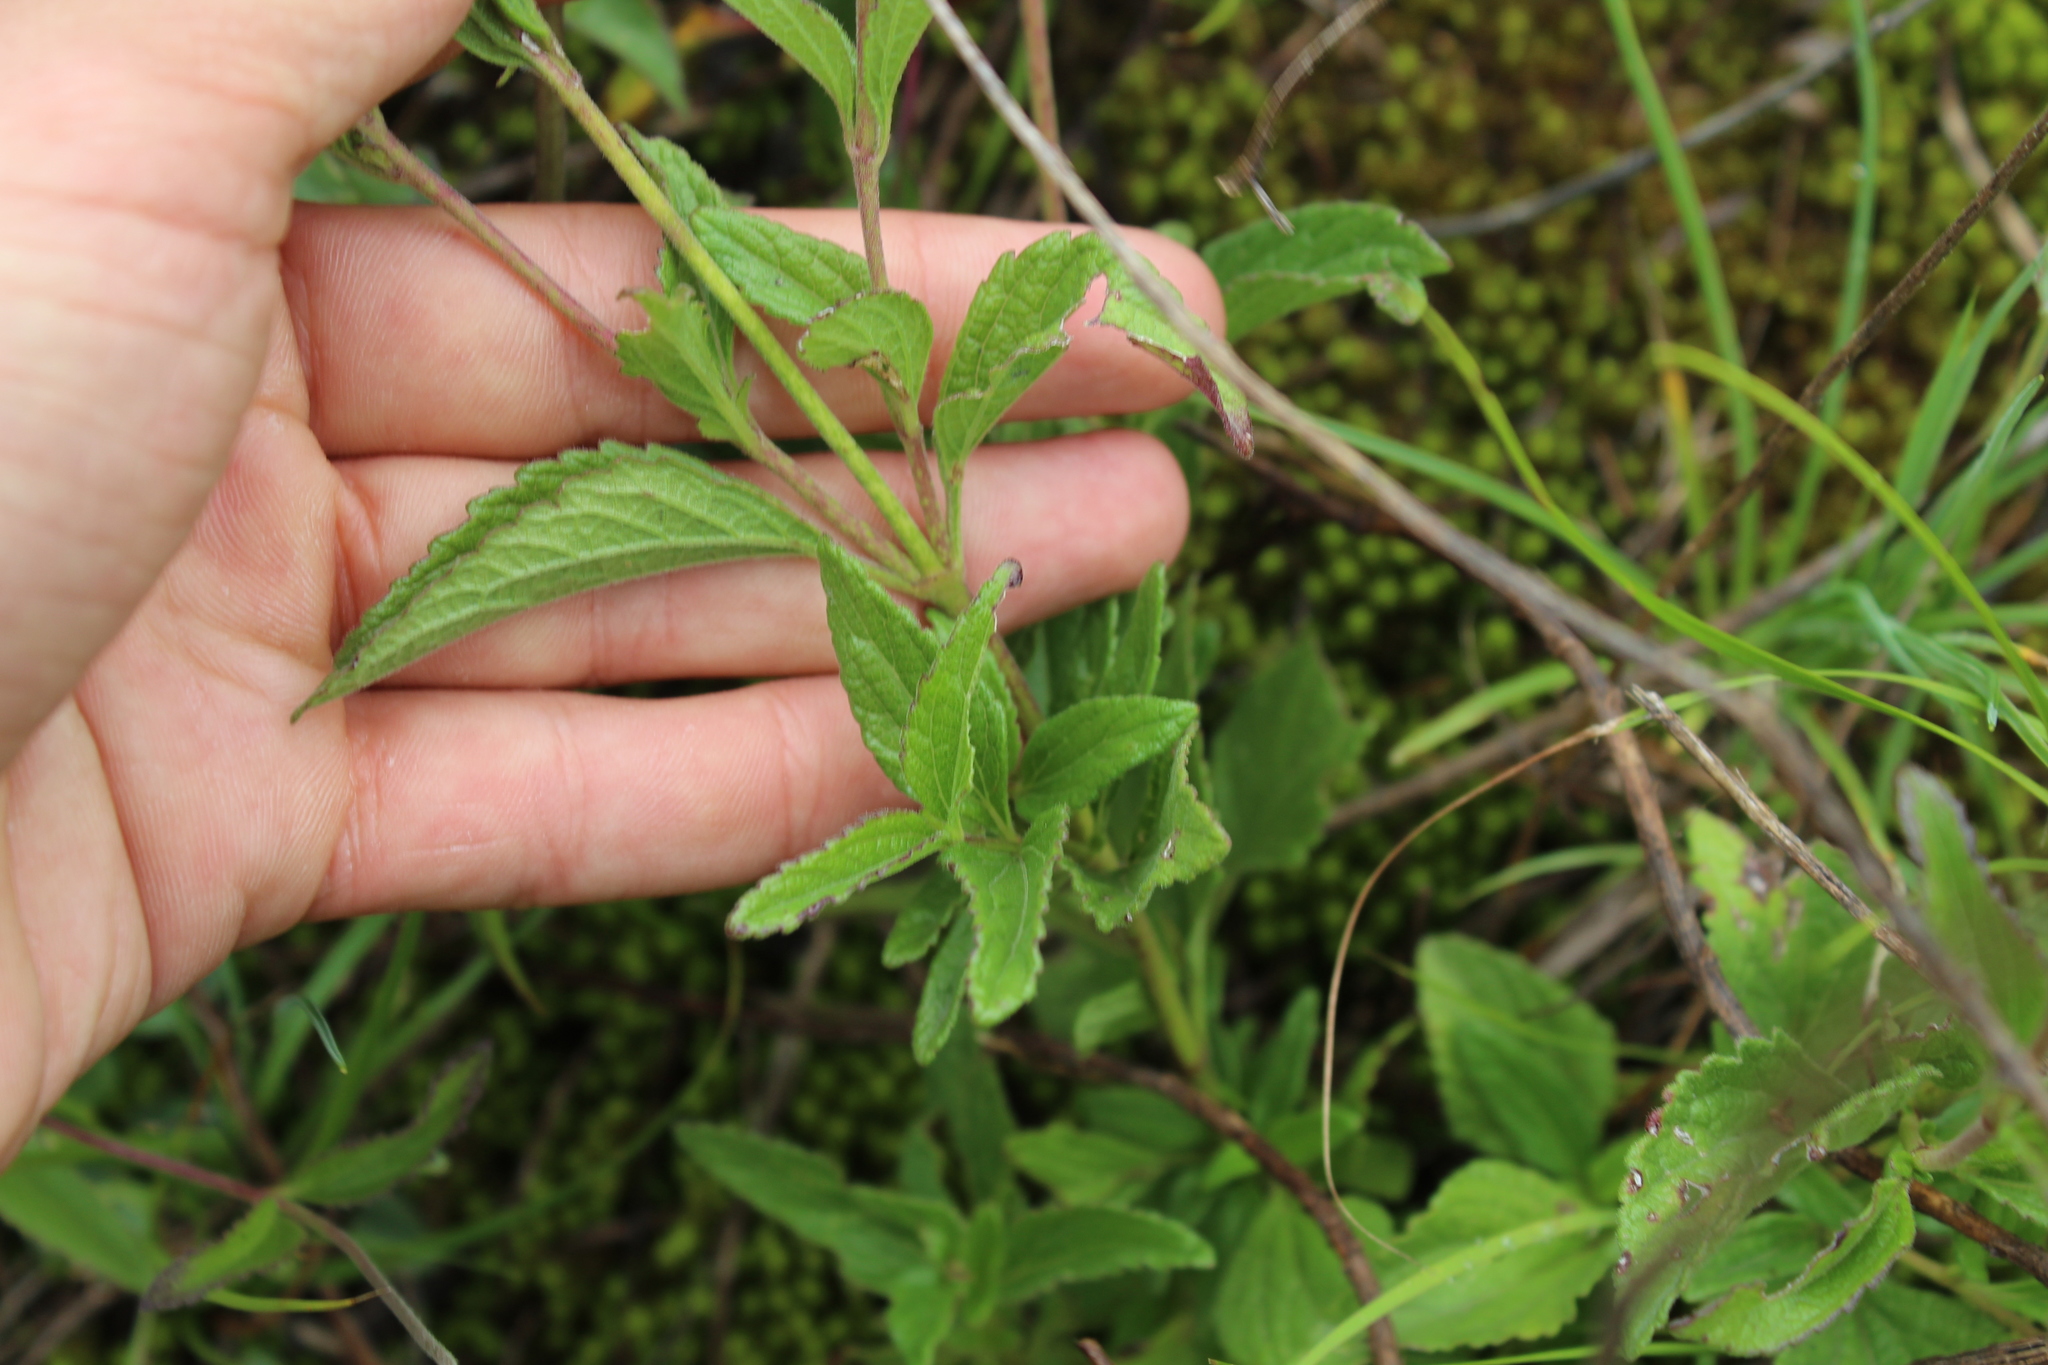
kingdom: Plantae
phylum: Tracheophyta
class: Magnoliopsida
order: Asterales
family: Asteraceae
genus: Ageratum
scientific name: Ageratum corymbosum
